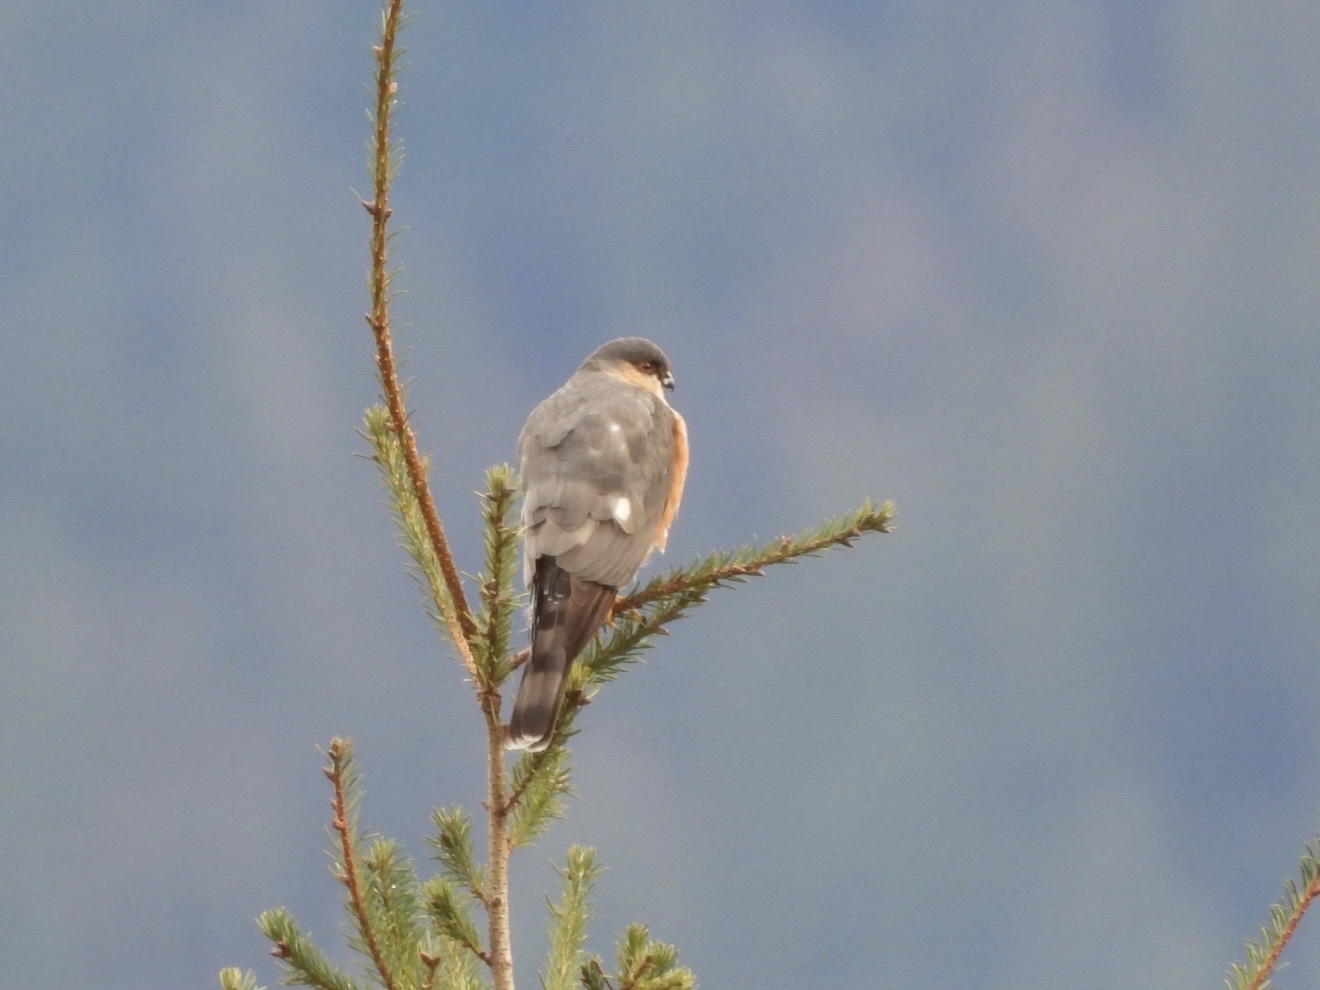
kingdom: Animalia
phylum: Chordata
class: Aves
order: Accipitriformes
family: Accipitridae
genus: Accipiter
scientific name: Accipiter striatus
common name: Sharp-shinned hawk
